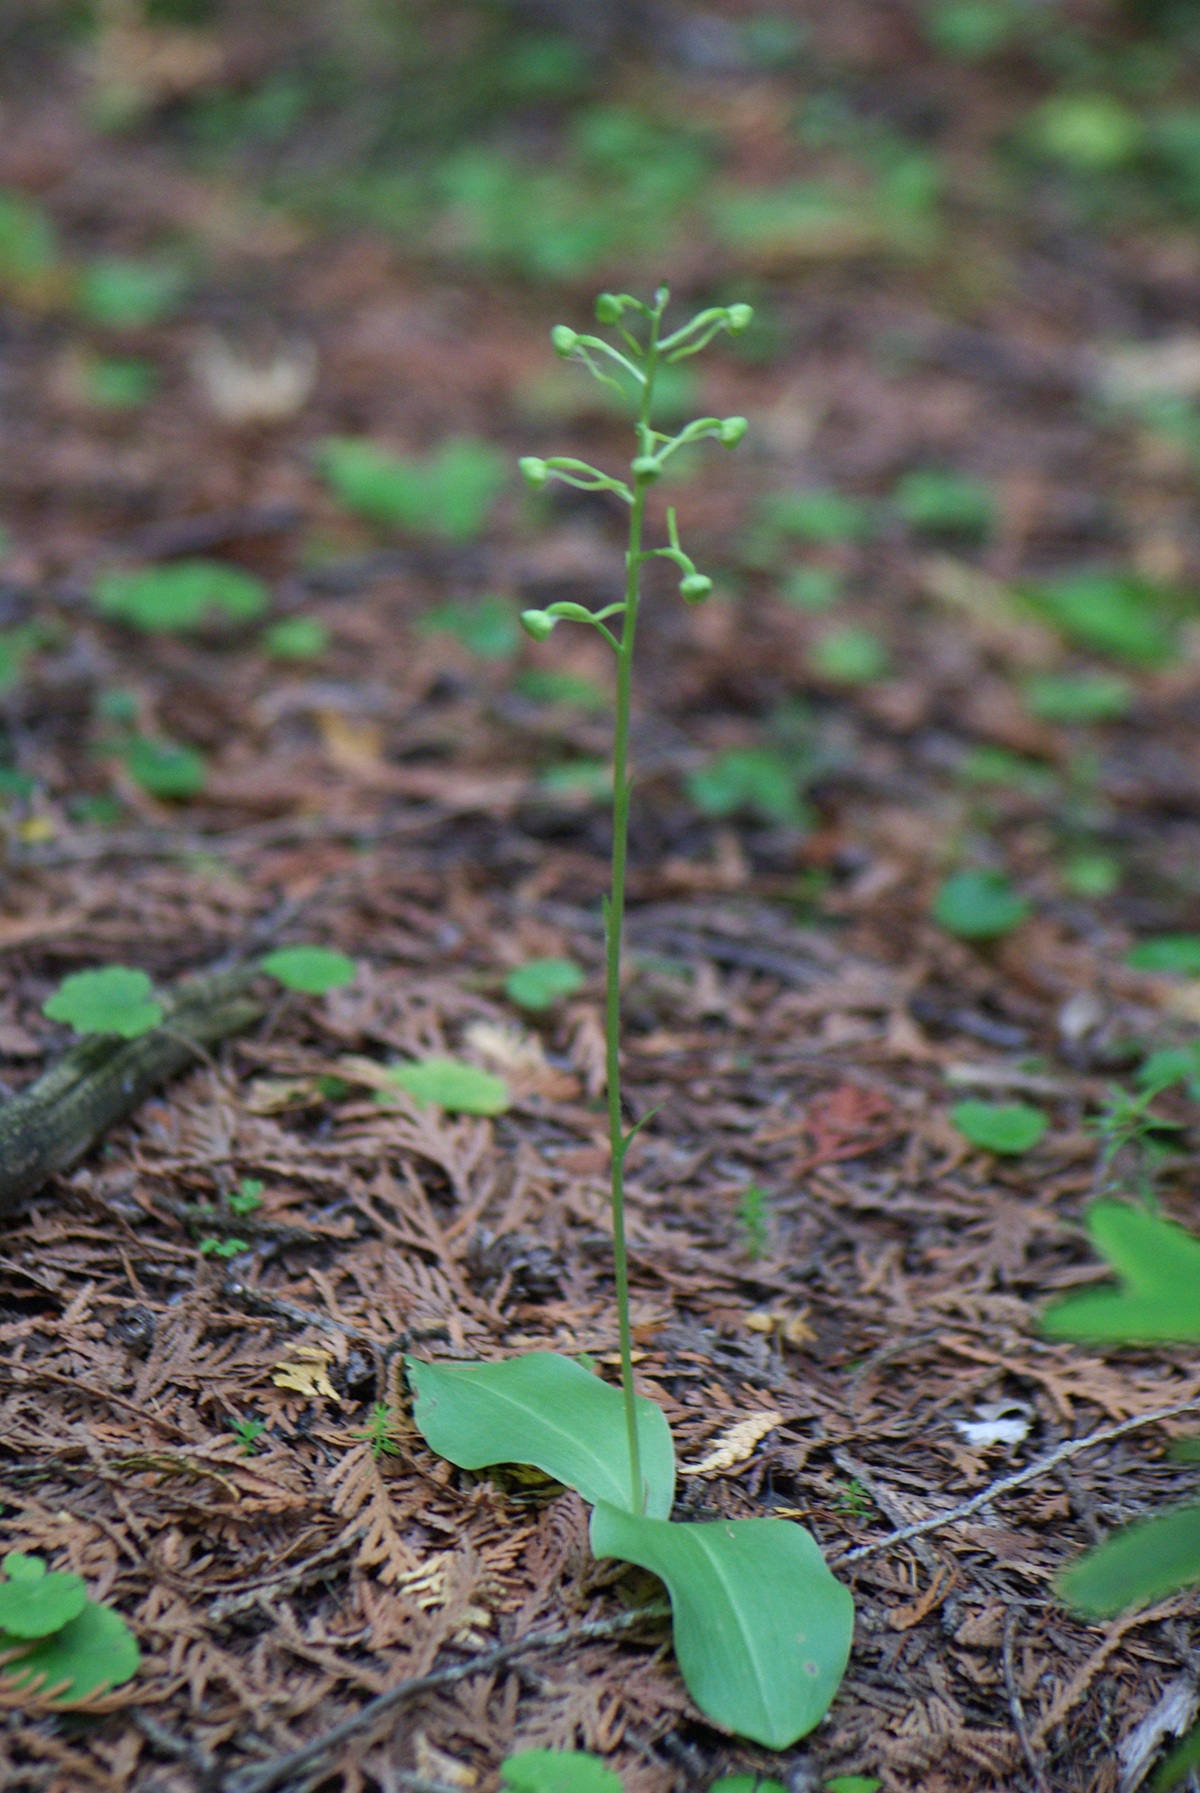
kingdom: Plantae
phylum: Tracheophyta
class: Liliopsida
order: Asparagales
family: Orchidaceae
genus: Platanthera
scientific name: Platanthera orbiculata
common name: Large round-leaved orchid
